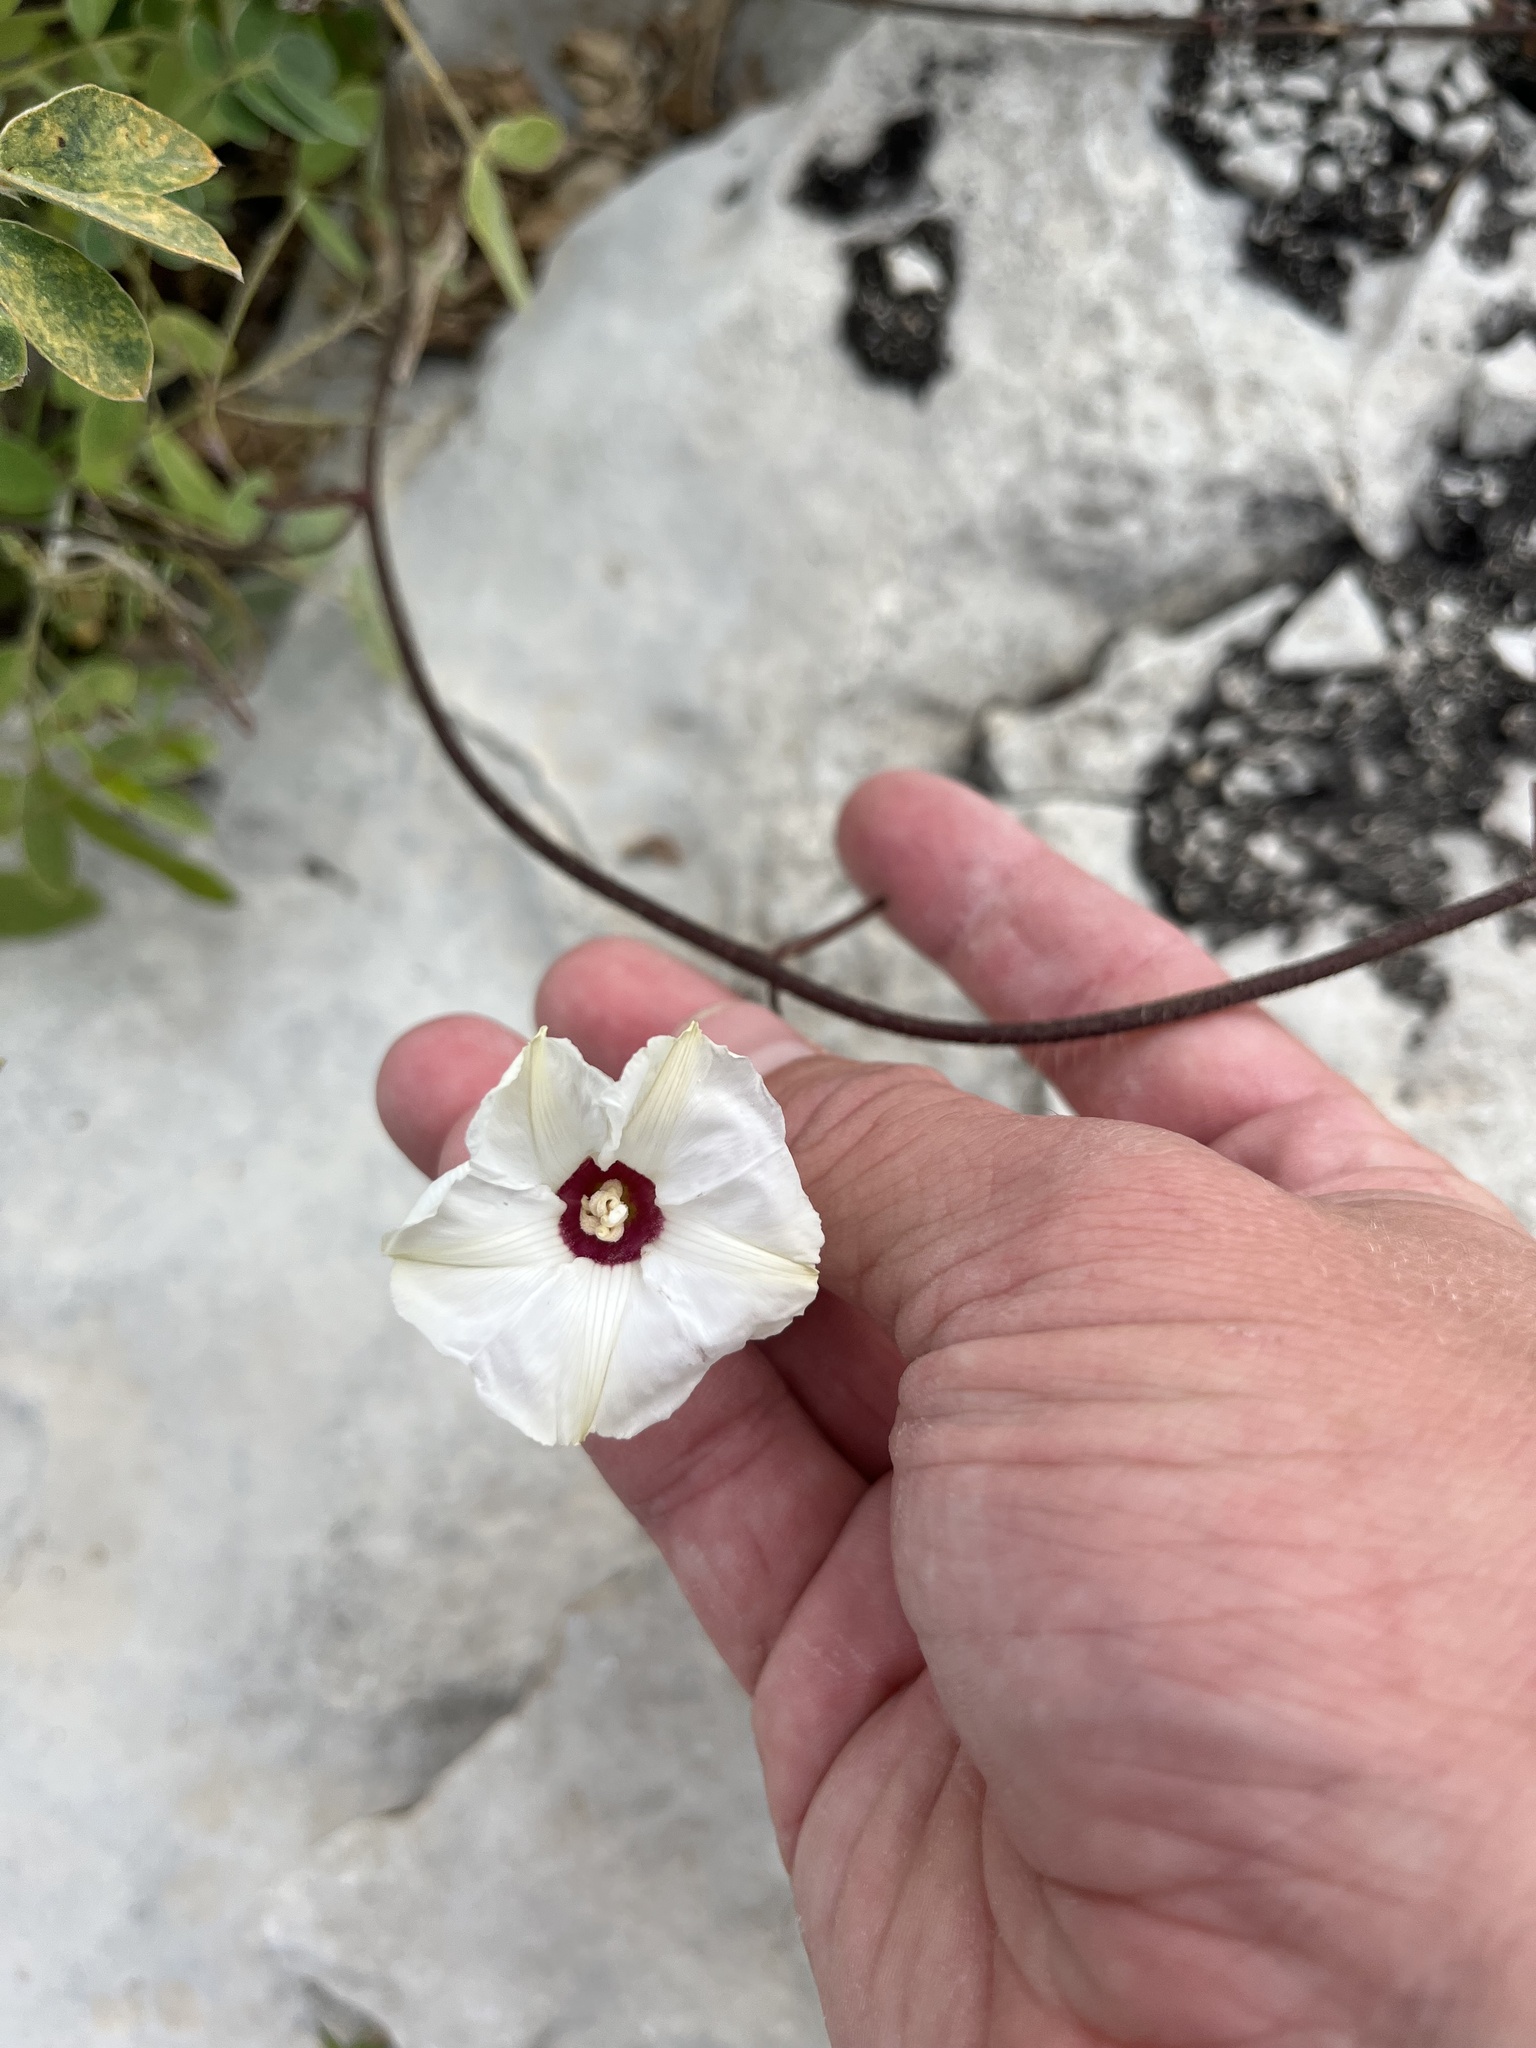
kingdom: Plantae
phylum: Tracheophyta
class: Magnoliopsida
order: Solanales
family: Convolvulaceae
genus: Distimake
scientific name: Distimake dissectus
